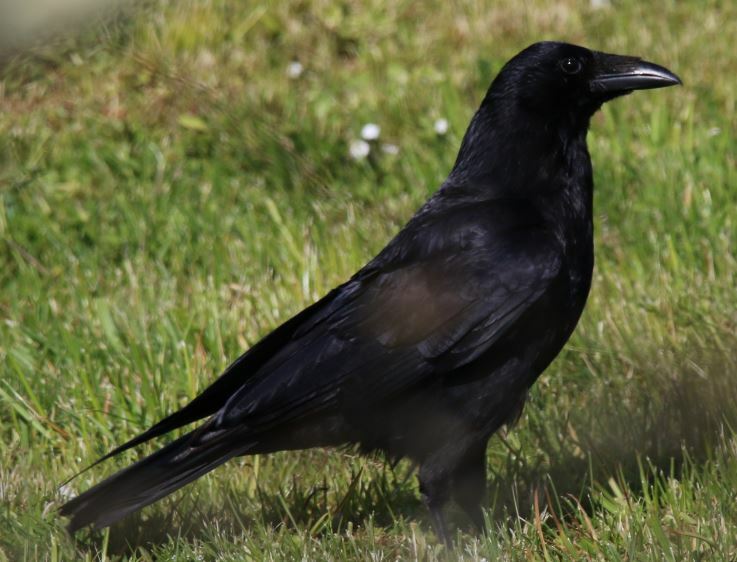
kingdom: Animalia
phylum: Chordata
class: Aves
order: Passeriformes
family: Corvidae
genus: Corvus
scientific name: Corvus corone
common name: Carrion crow
